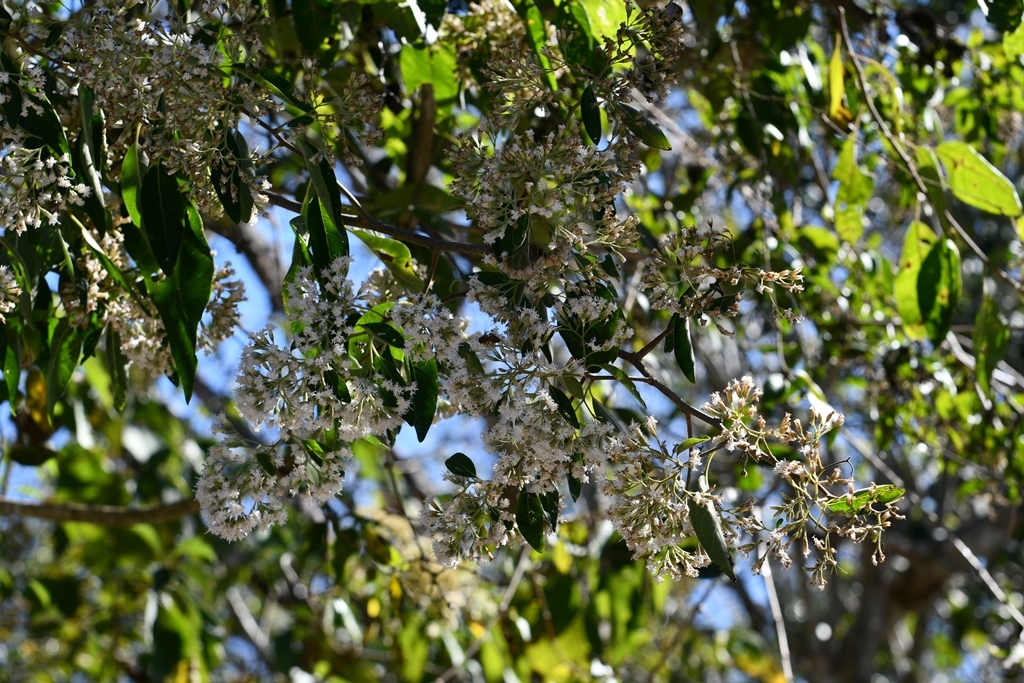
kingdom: Plantae
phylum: Tracheophyta
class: Magnoliopsida
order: Asterales
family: Asteraceae
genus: Eremosis
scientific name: Eremosis triflosculosa
